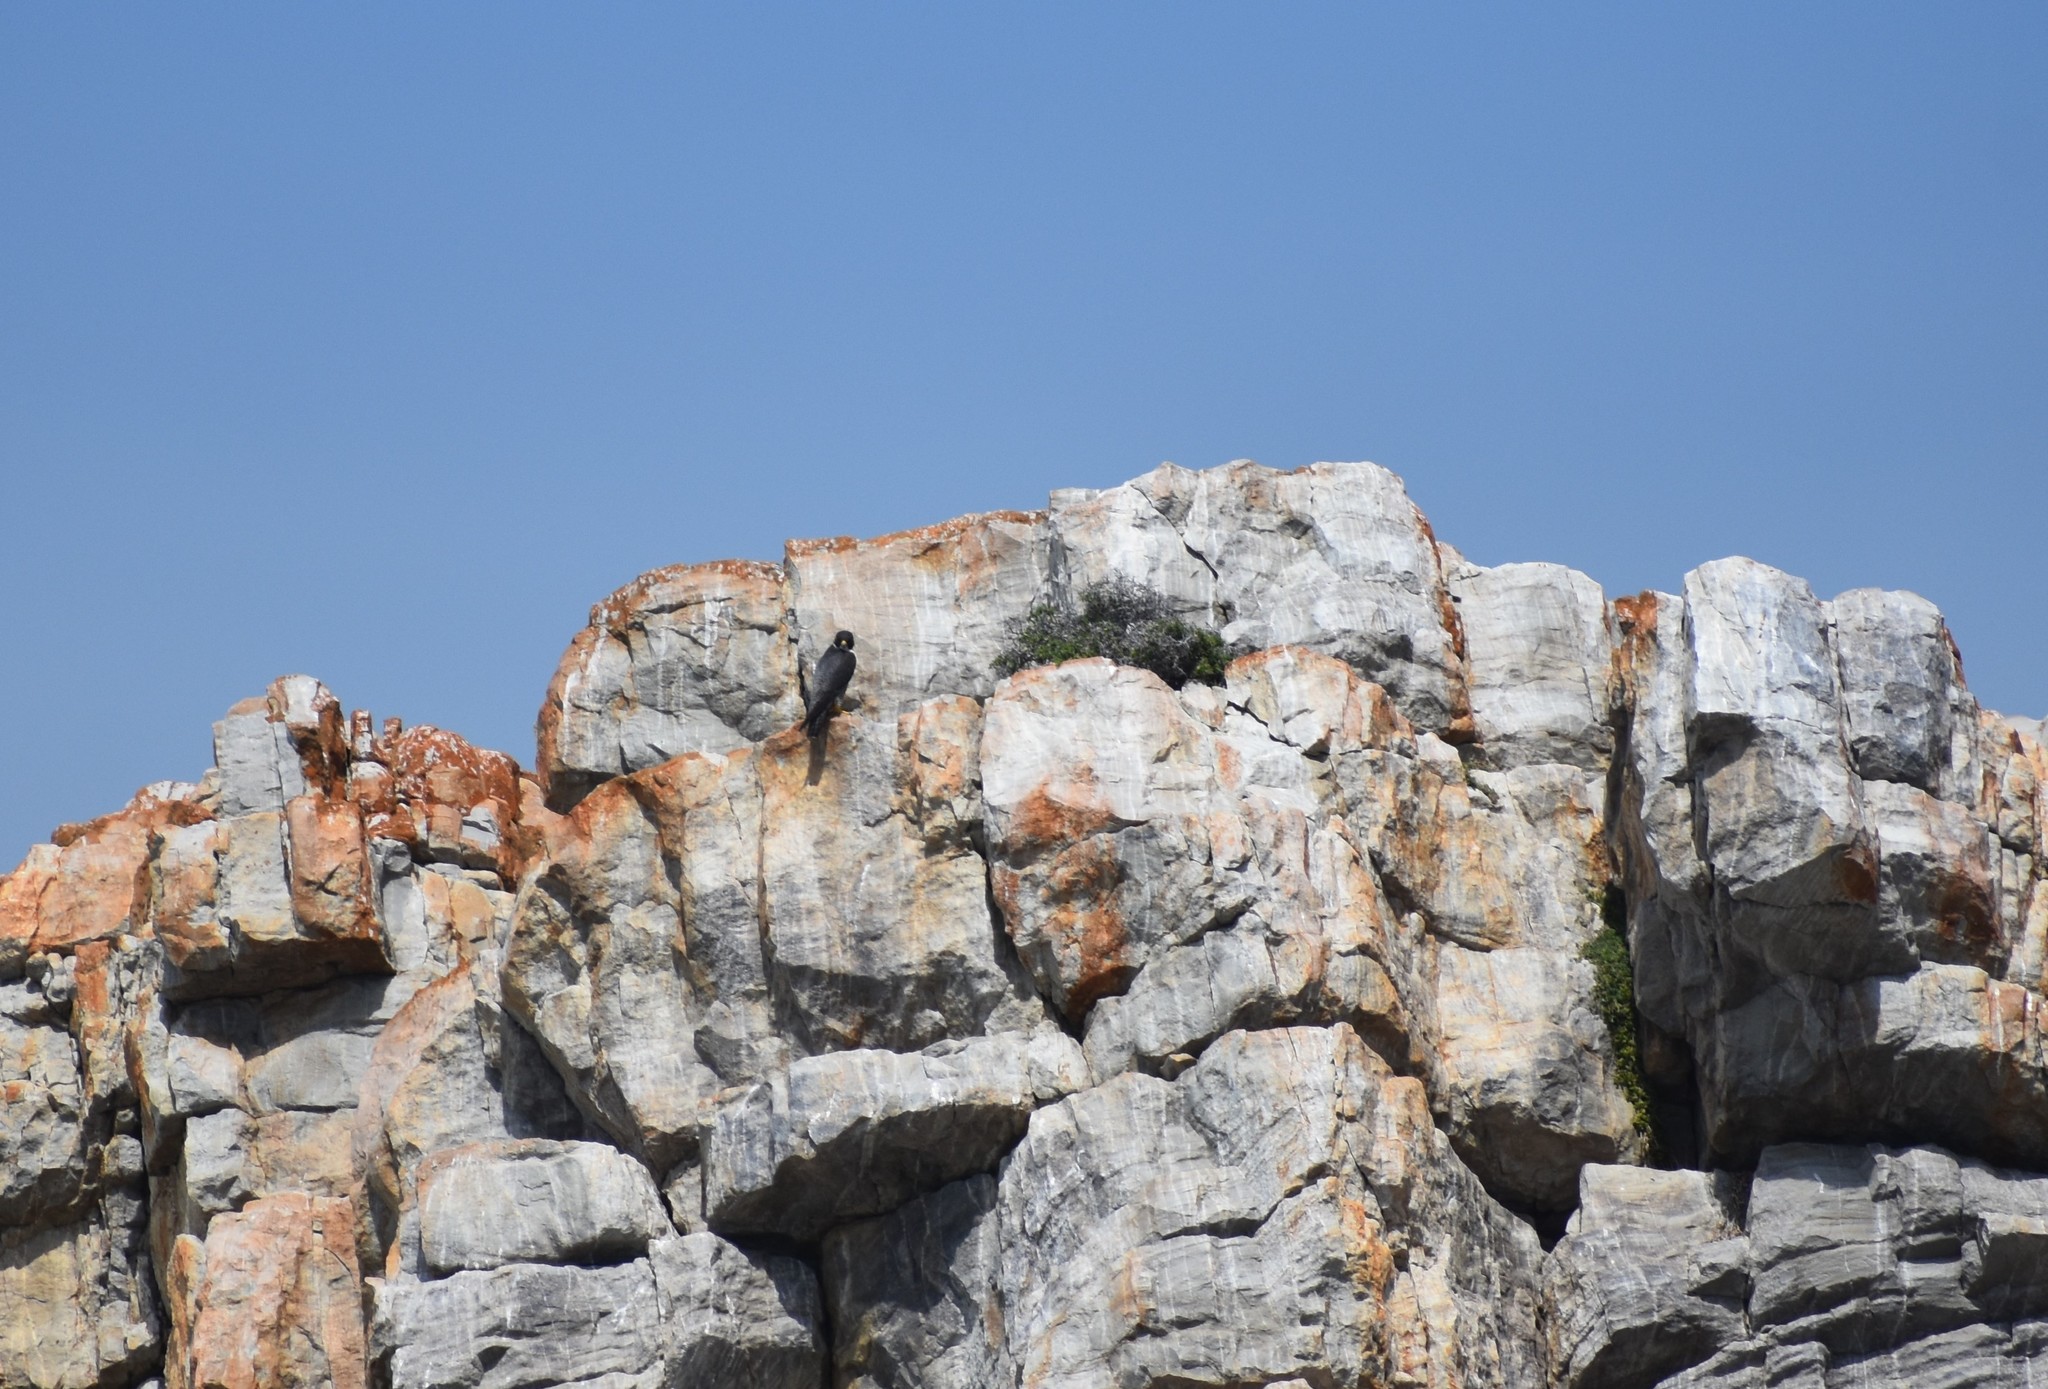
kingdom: Animalia
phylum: Chordata
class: Aves
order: Falconiformes
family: Falconidae
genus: Falco
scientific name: Falco peregrinus
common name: Peregrine falcon
